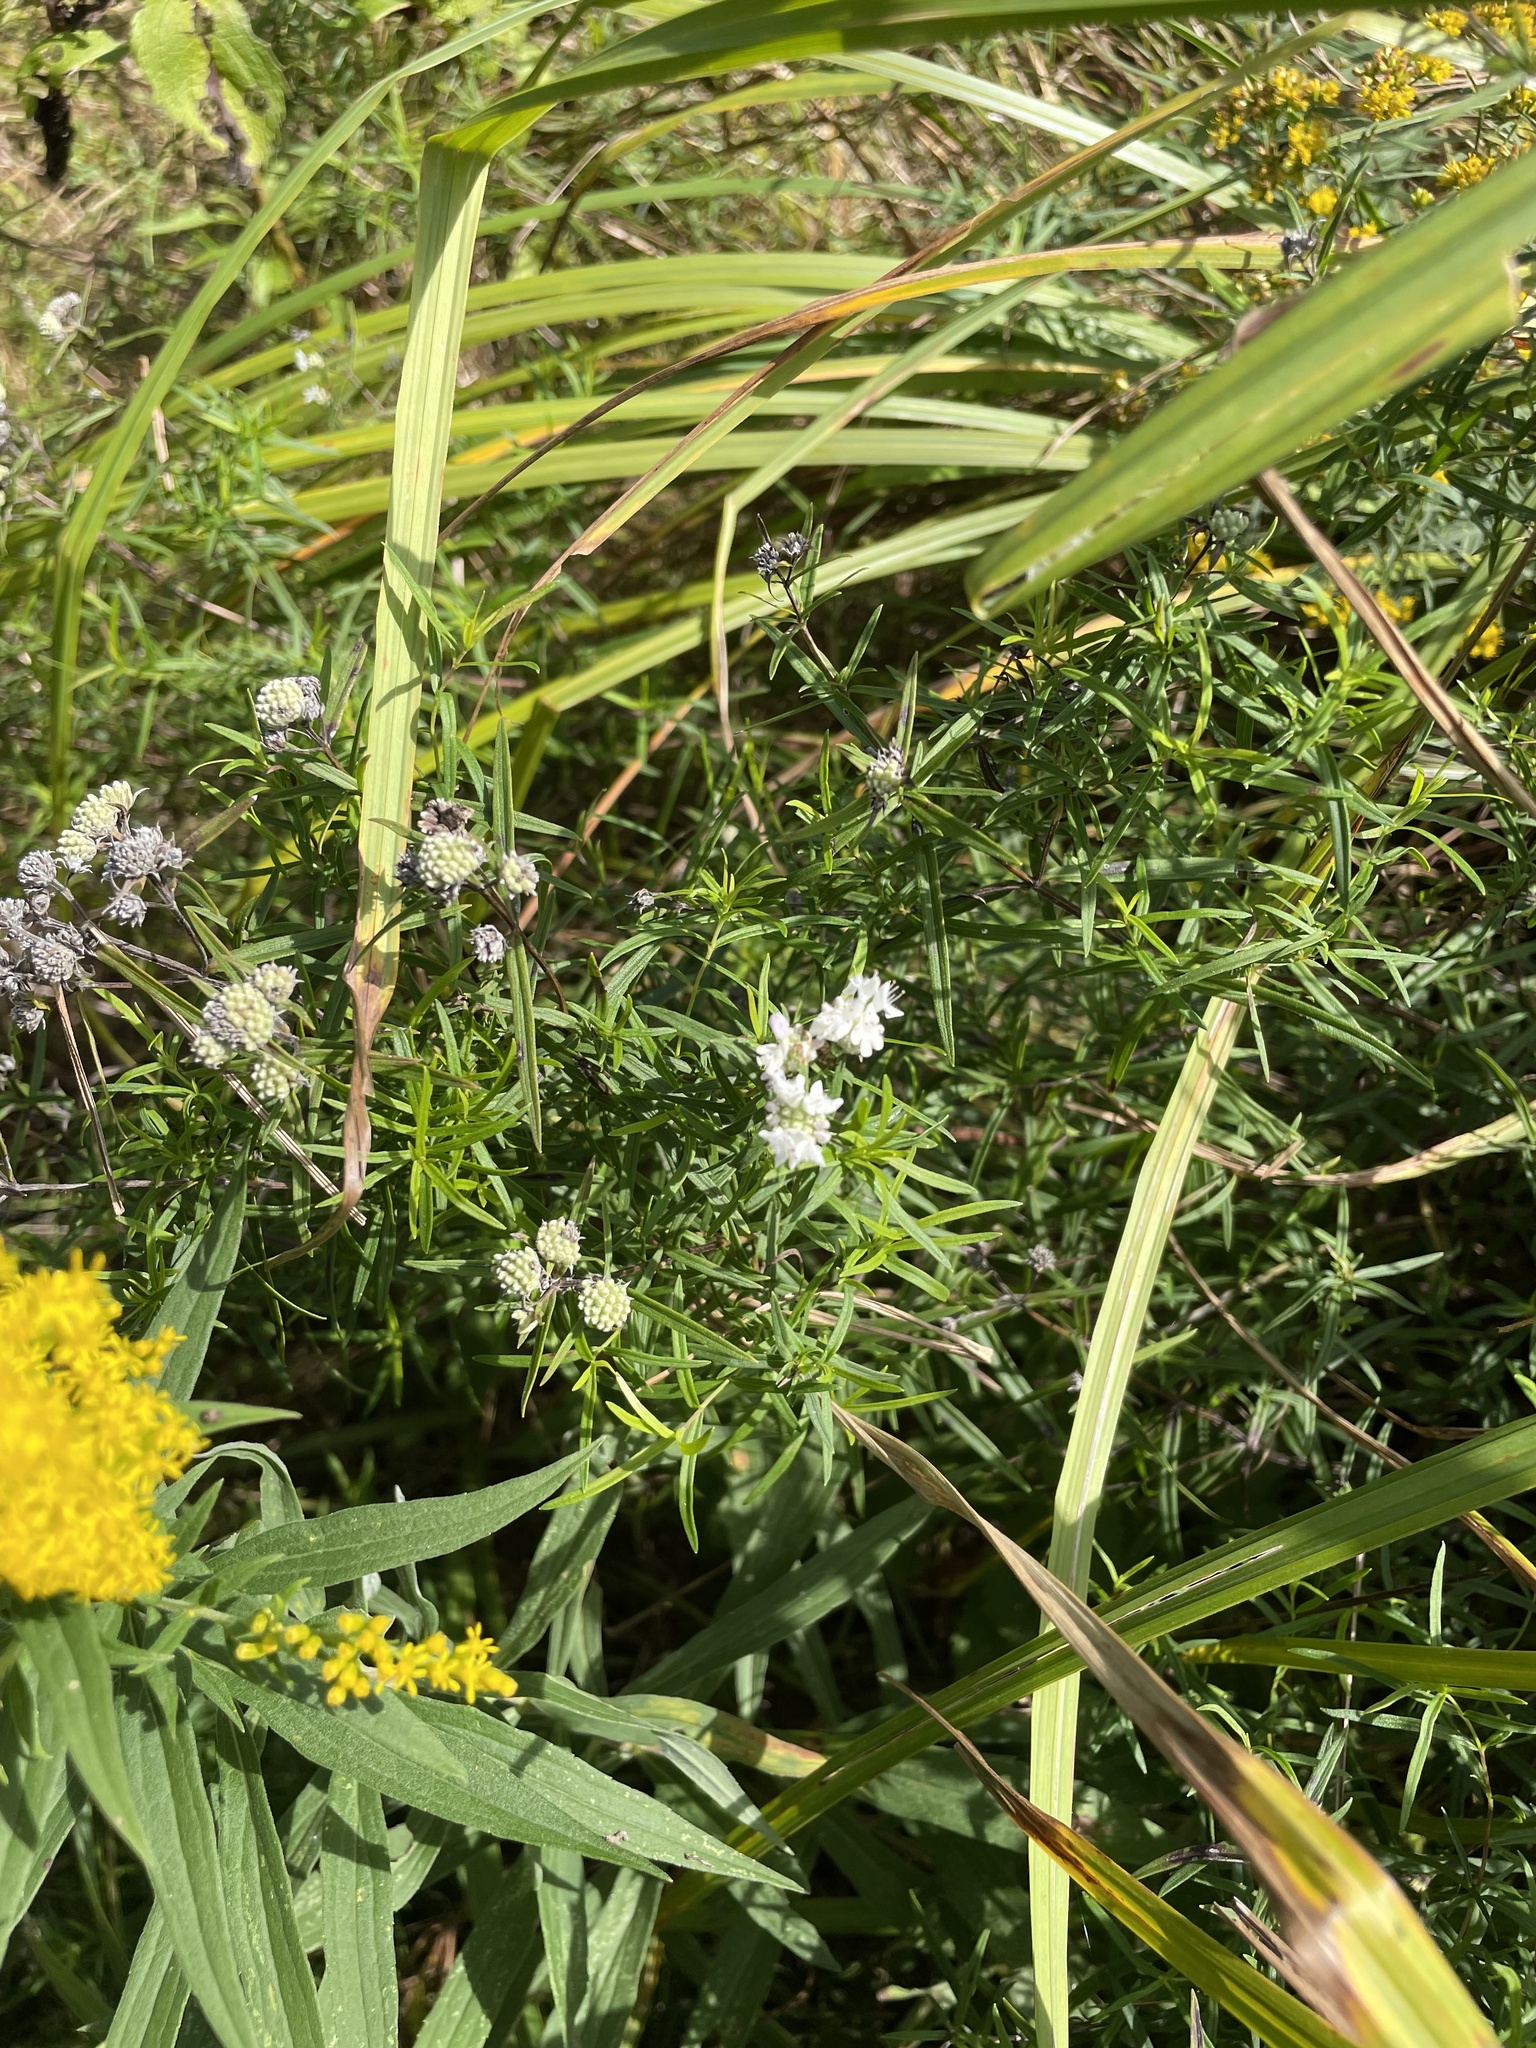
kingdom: Plantae
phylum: Tracheophyta
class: Magnoliopsida
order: Lamiales
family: Lamiaceae
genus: Pycnanthemum
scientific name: Pycnanthemum virginianum
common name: Virginia mountain-mint
